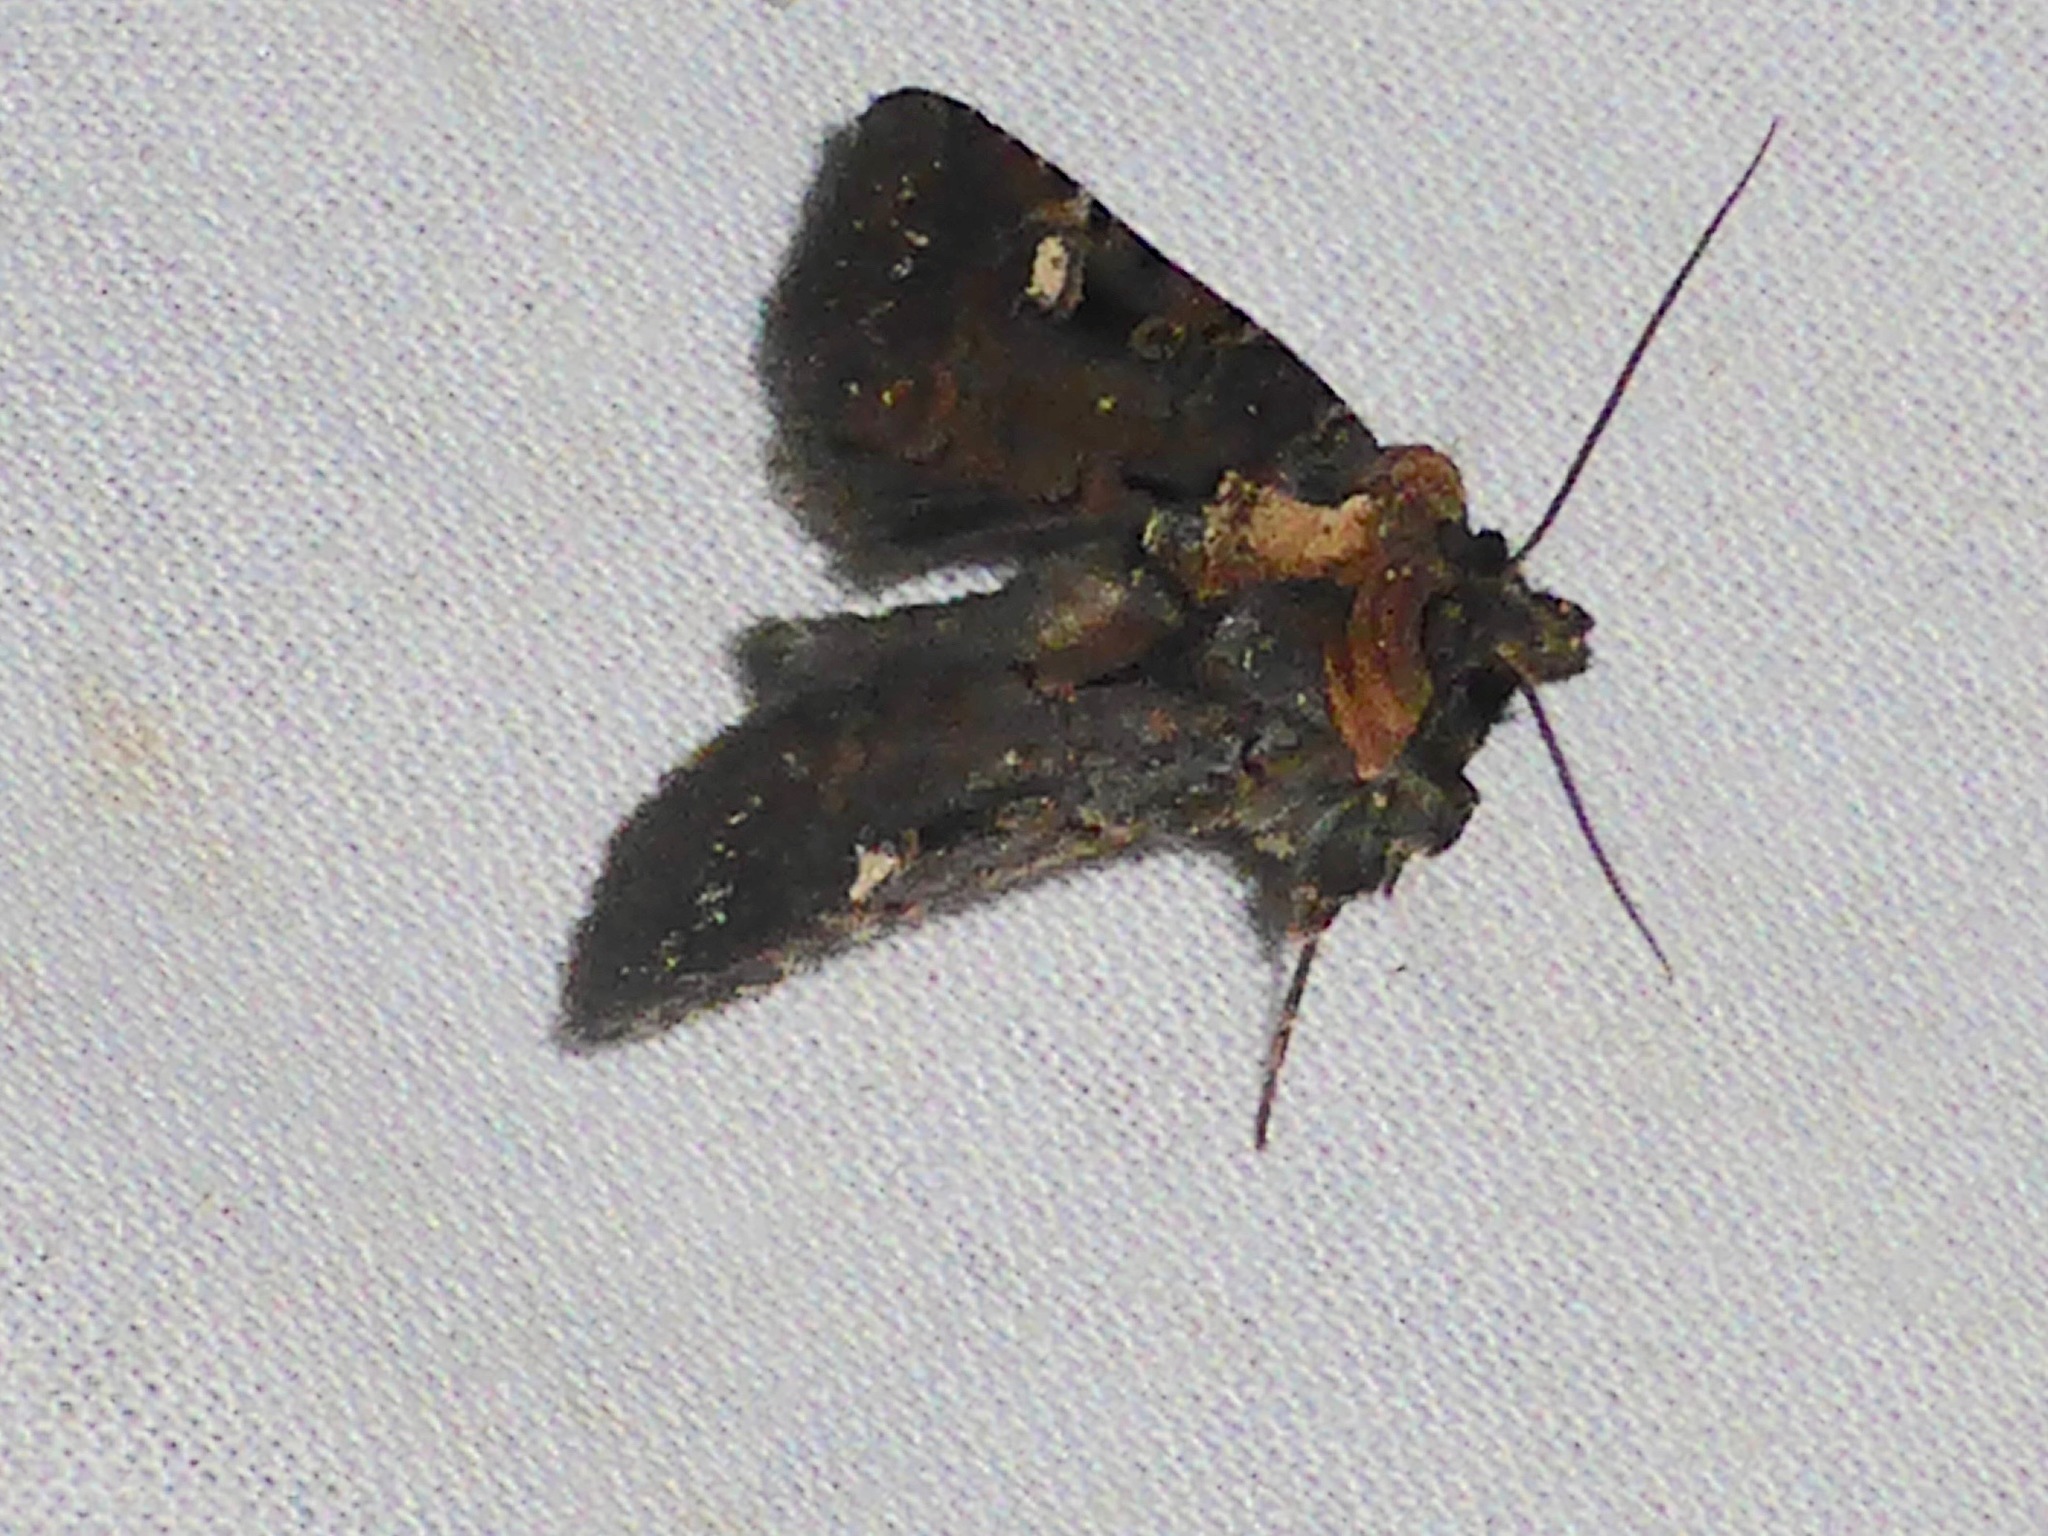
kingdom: Animalia
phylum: Arthropoda
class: Insecta
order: Lepidoptera
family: Noctuidae
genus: Austramathes
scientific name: Austramathes
